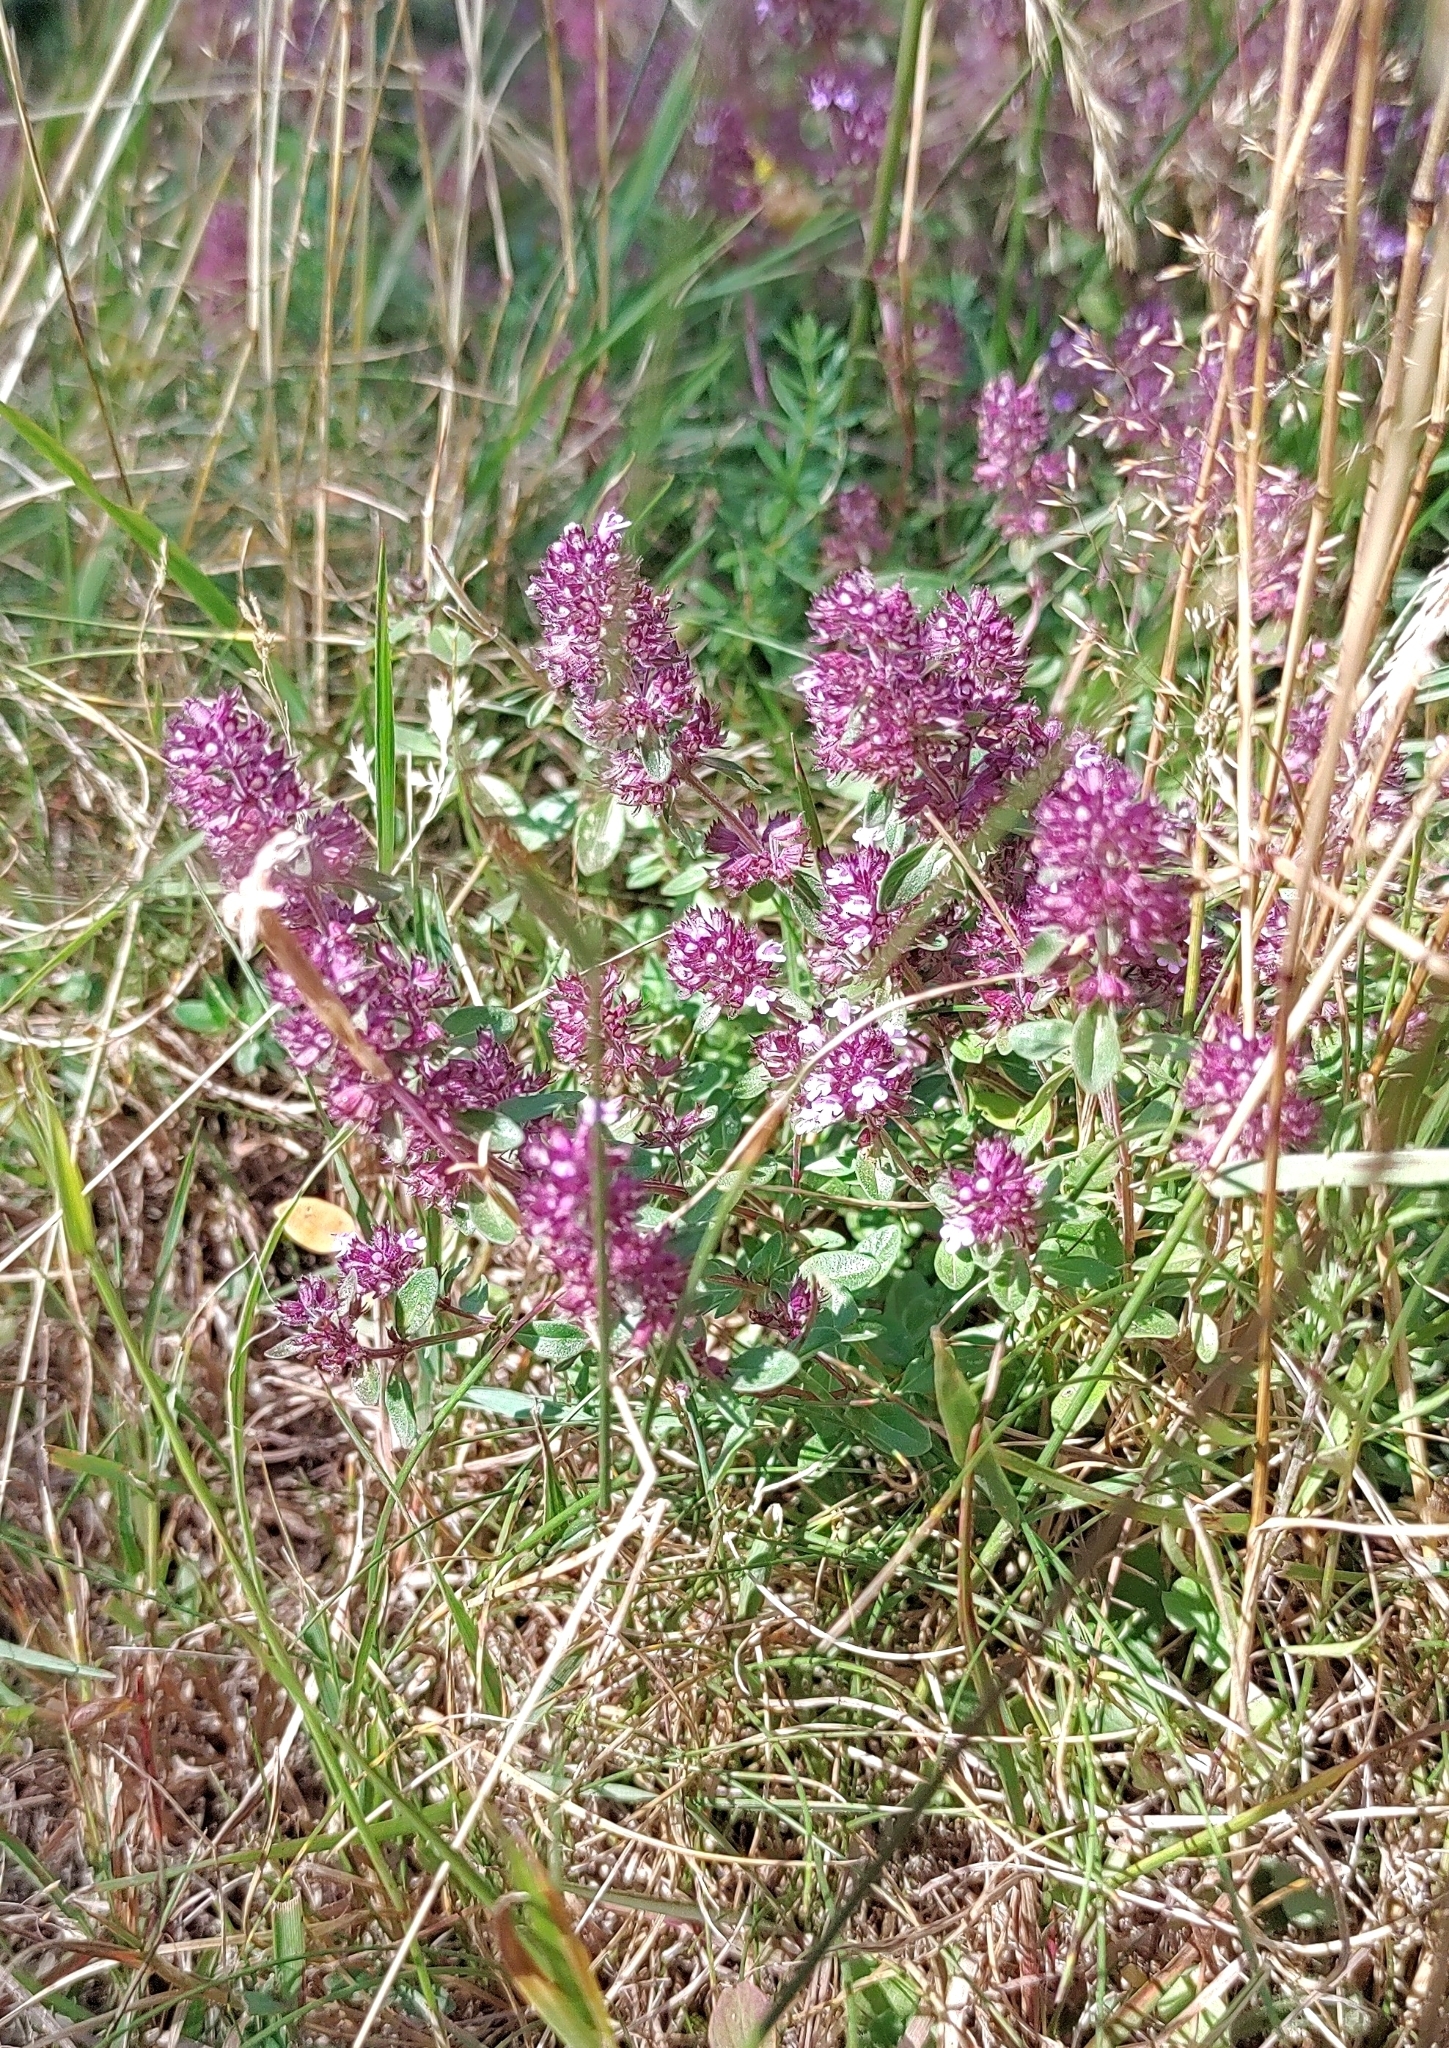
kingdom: Plantae
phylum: Tracheophyta
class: Magnoliopsida
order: Lamiales
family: Lamiaceae
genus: Thymus
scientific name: Thymus pulegioides
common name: Large thyme
